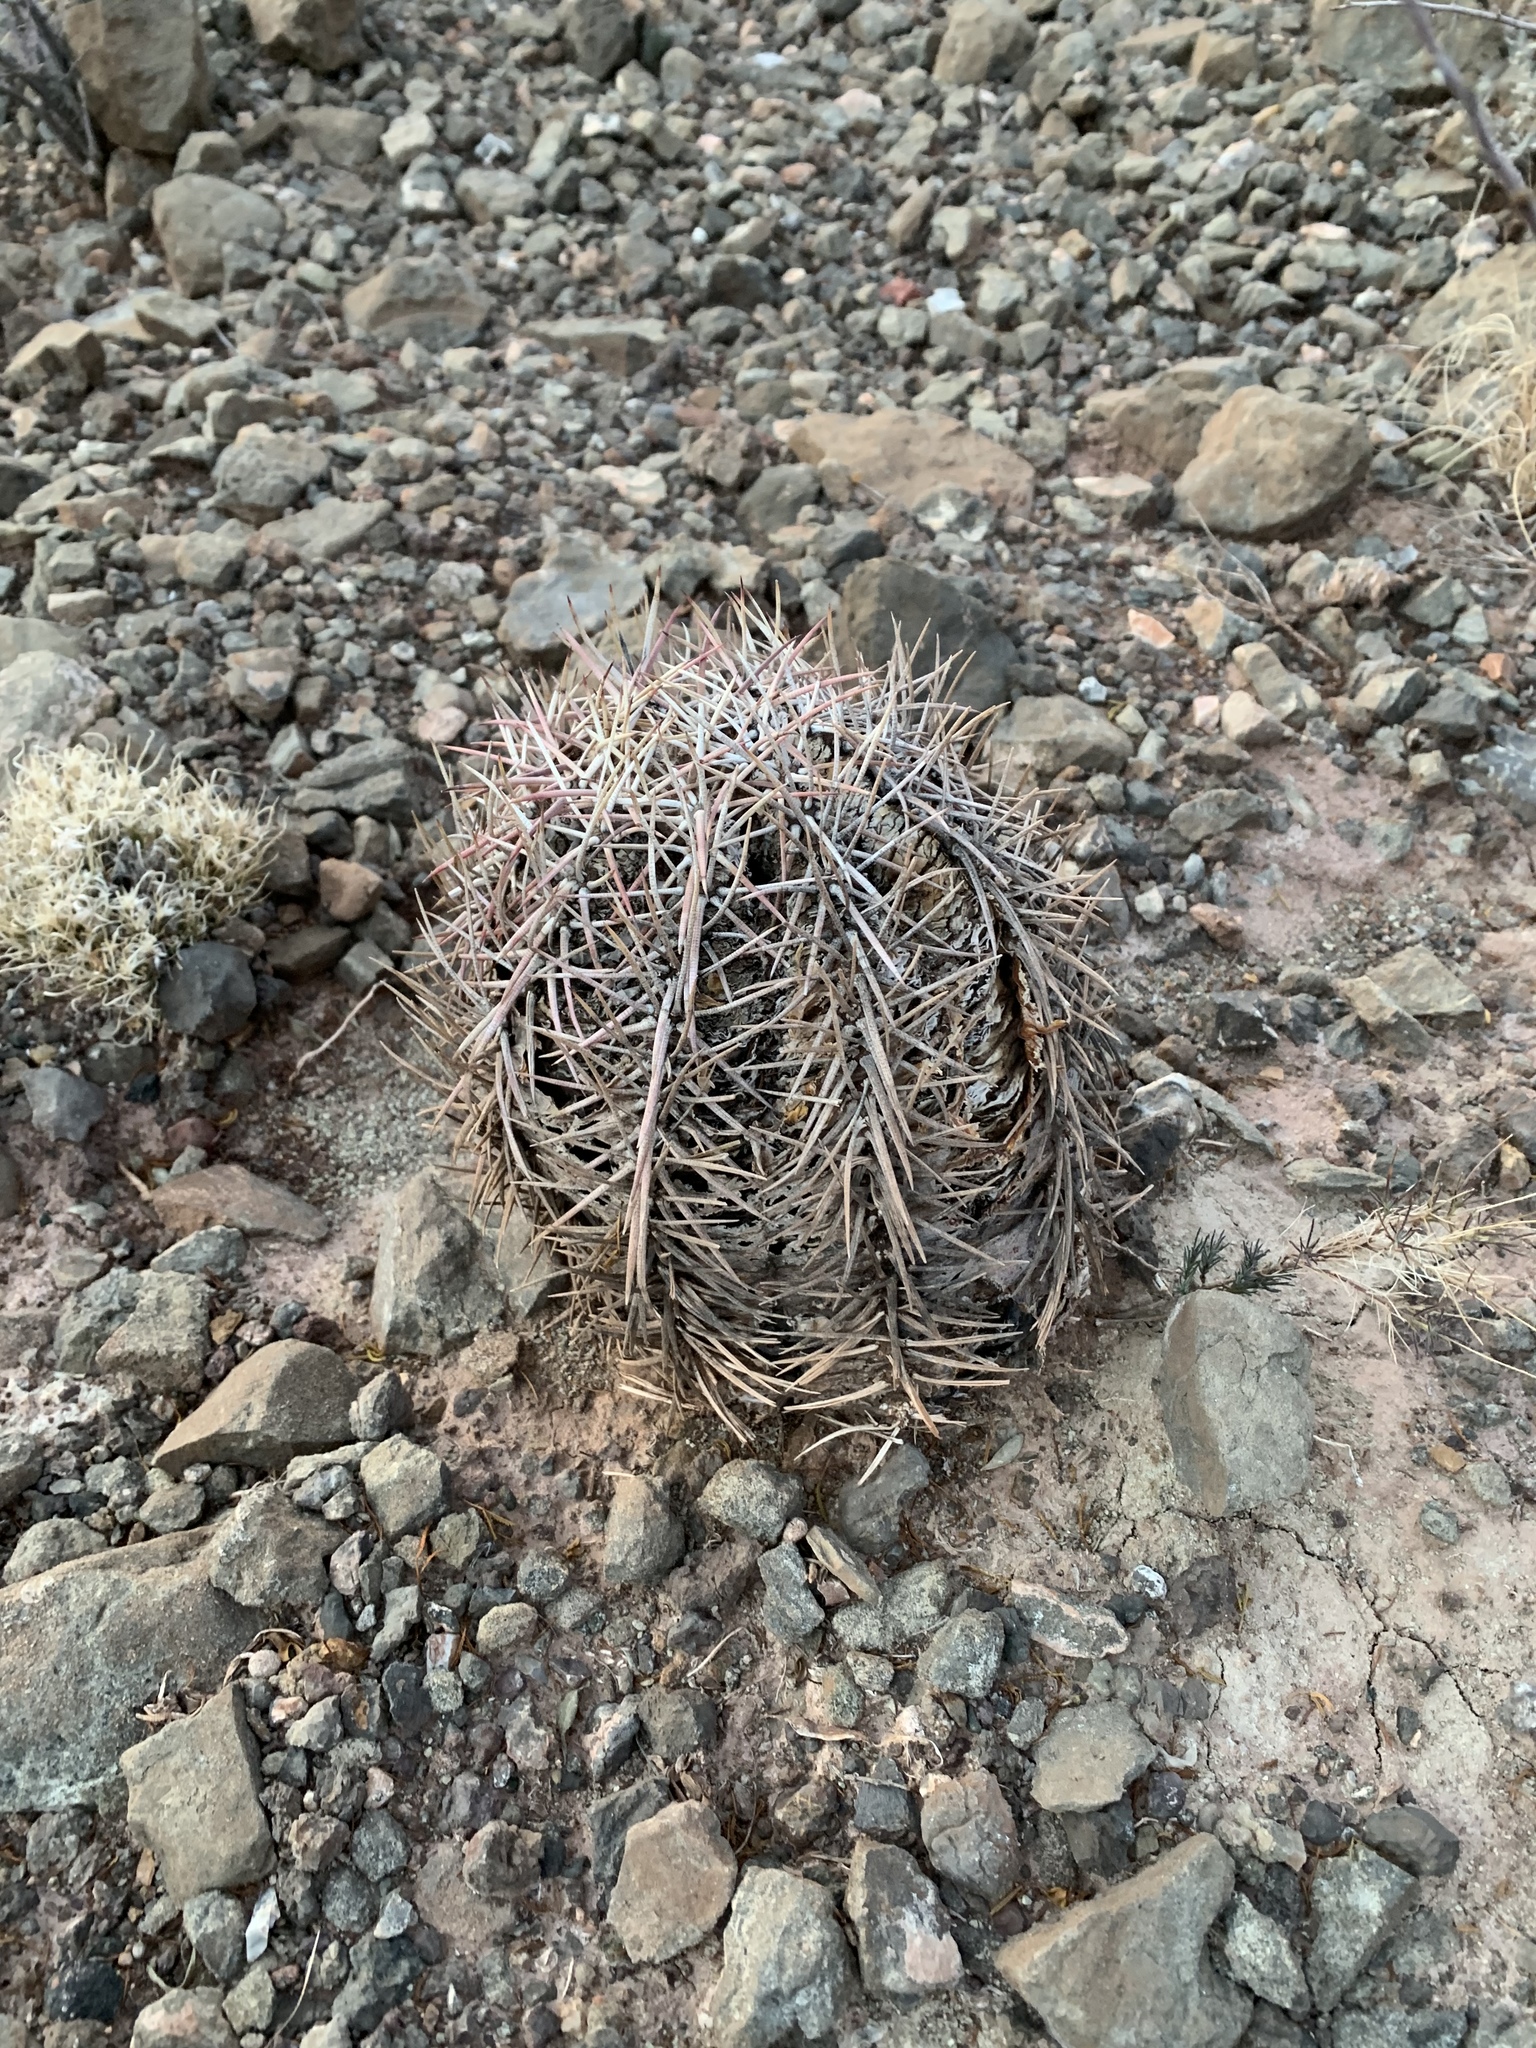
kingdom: Plantae
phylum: Tracheophyta
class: Magnoliopsida
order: Caryophyllales
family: Cactaceae
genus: Echinocactus
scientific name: Echinocactus horizonthalonius
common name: Devilshead
